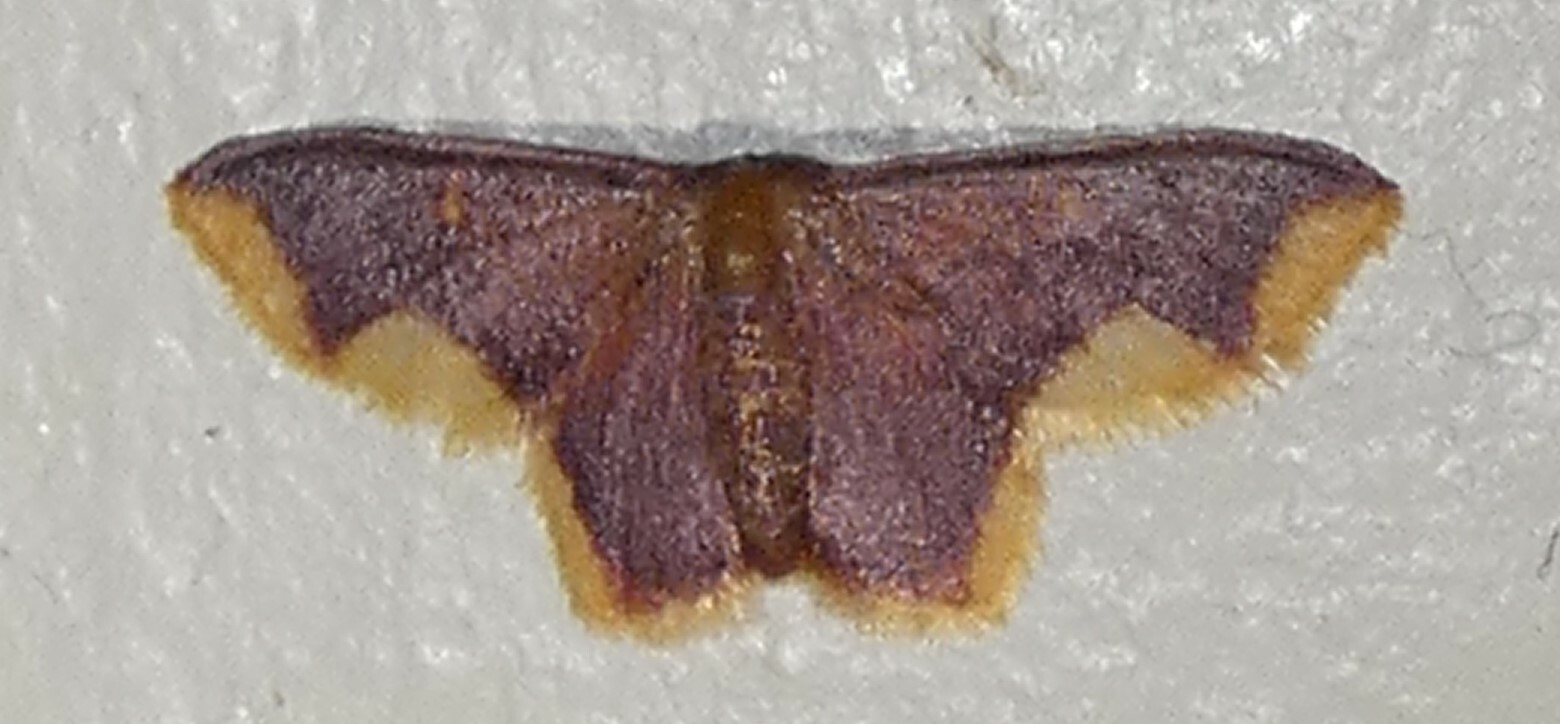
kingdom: Animalia
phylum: Arthropoda
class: Insecta
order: Lepidoptera
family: Geometridae
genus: Lophosis
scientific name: Lophosis labeculata
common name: Stained lophosis moth
